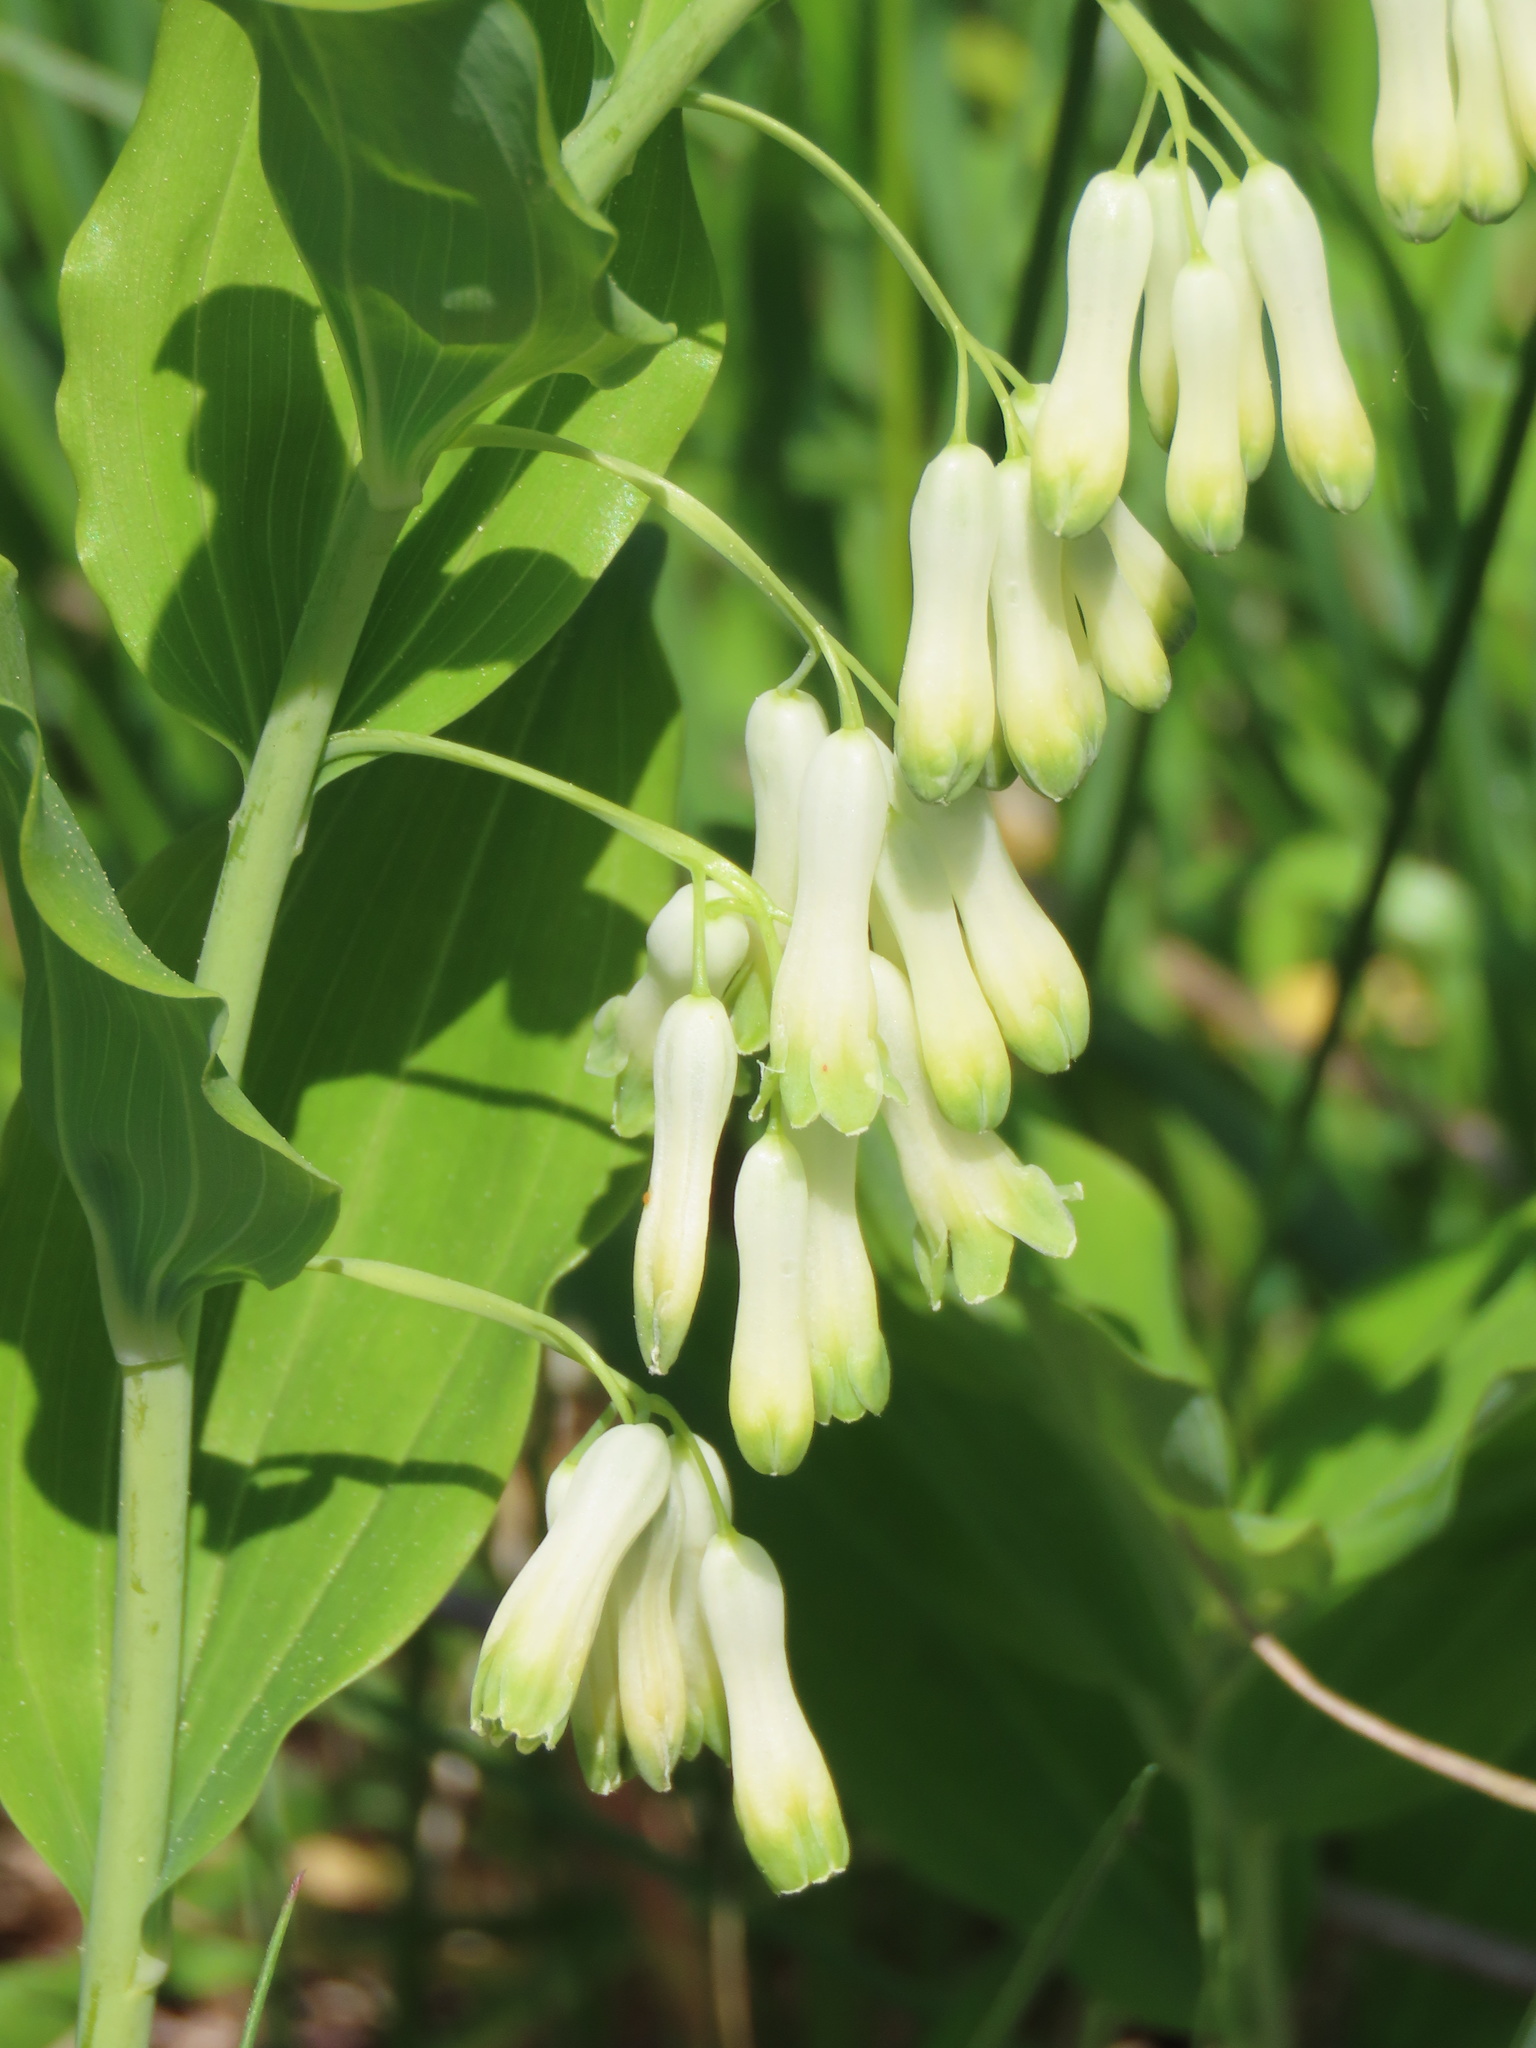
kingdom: Plantae
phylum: Tracheophyta
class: Liliopsida
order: Asparagales
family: Asparagaceae
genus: Polygonatum
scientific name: Polygonatum multiflorum
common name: Solomon's-seal
